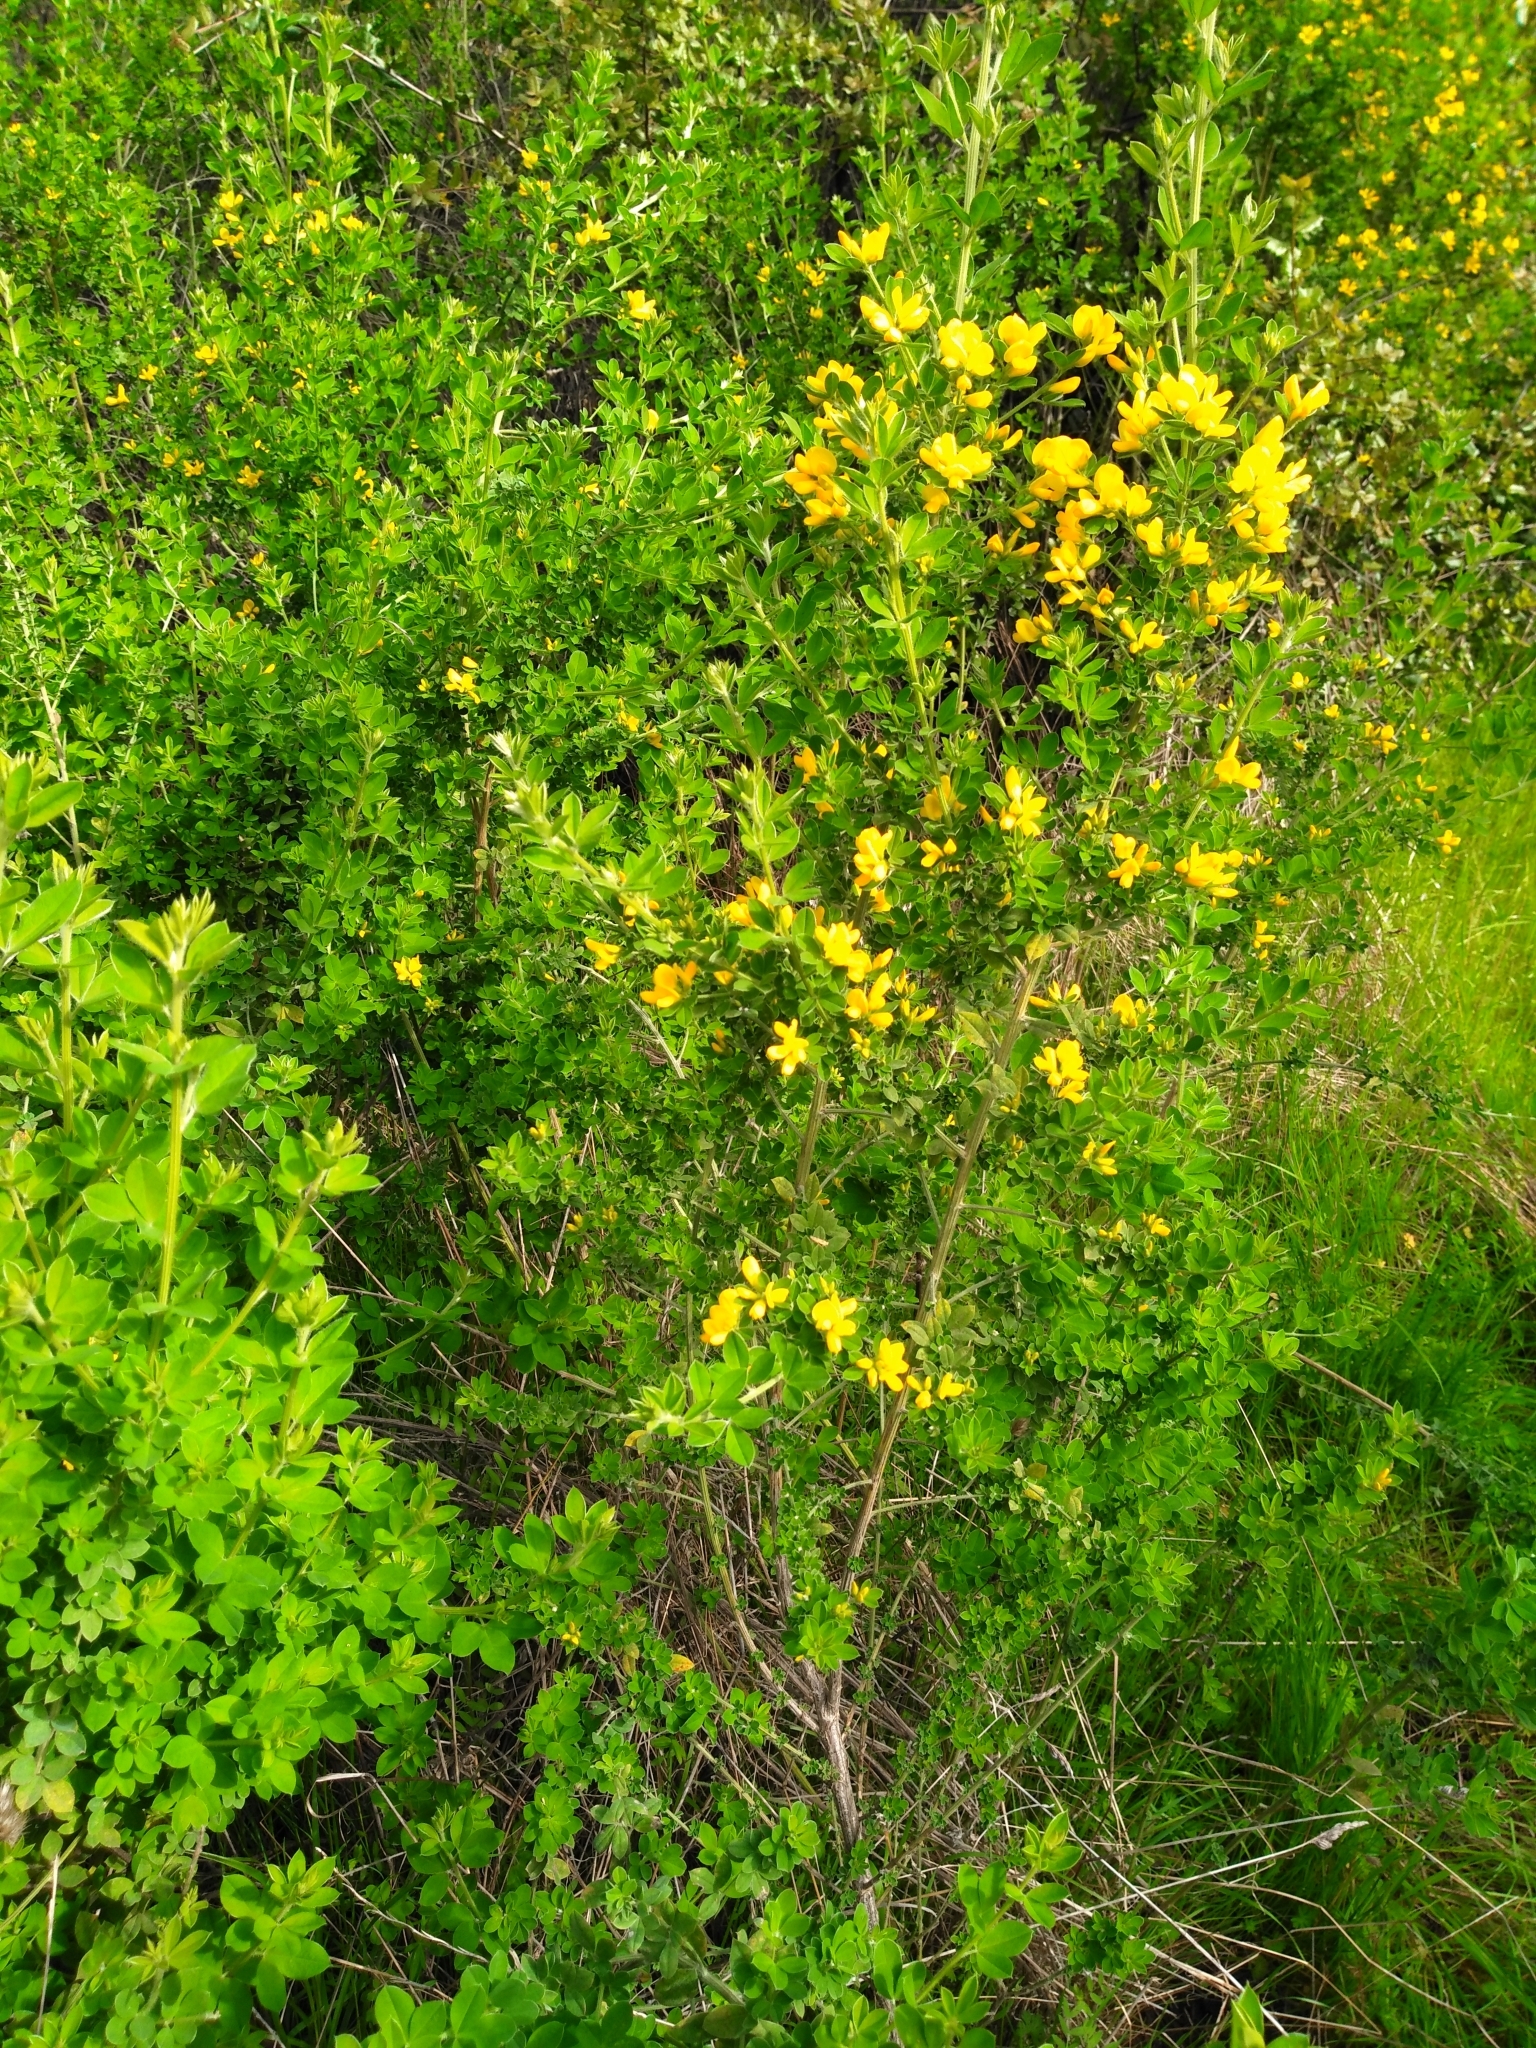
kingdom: Plantae
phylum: Tracheophyta
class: Magnoliopsida
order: Fabales
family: Fabaceae
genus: Genista
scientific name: Genista monspessulana
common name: Montpellier broom
